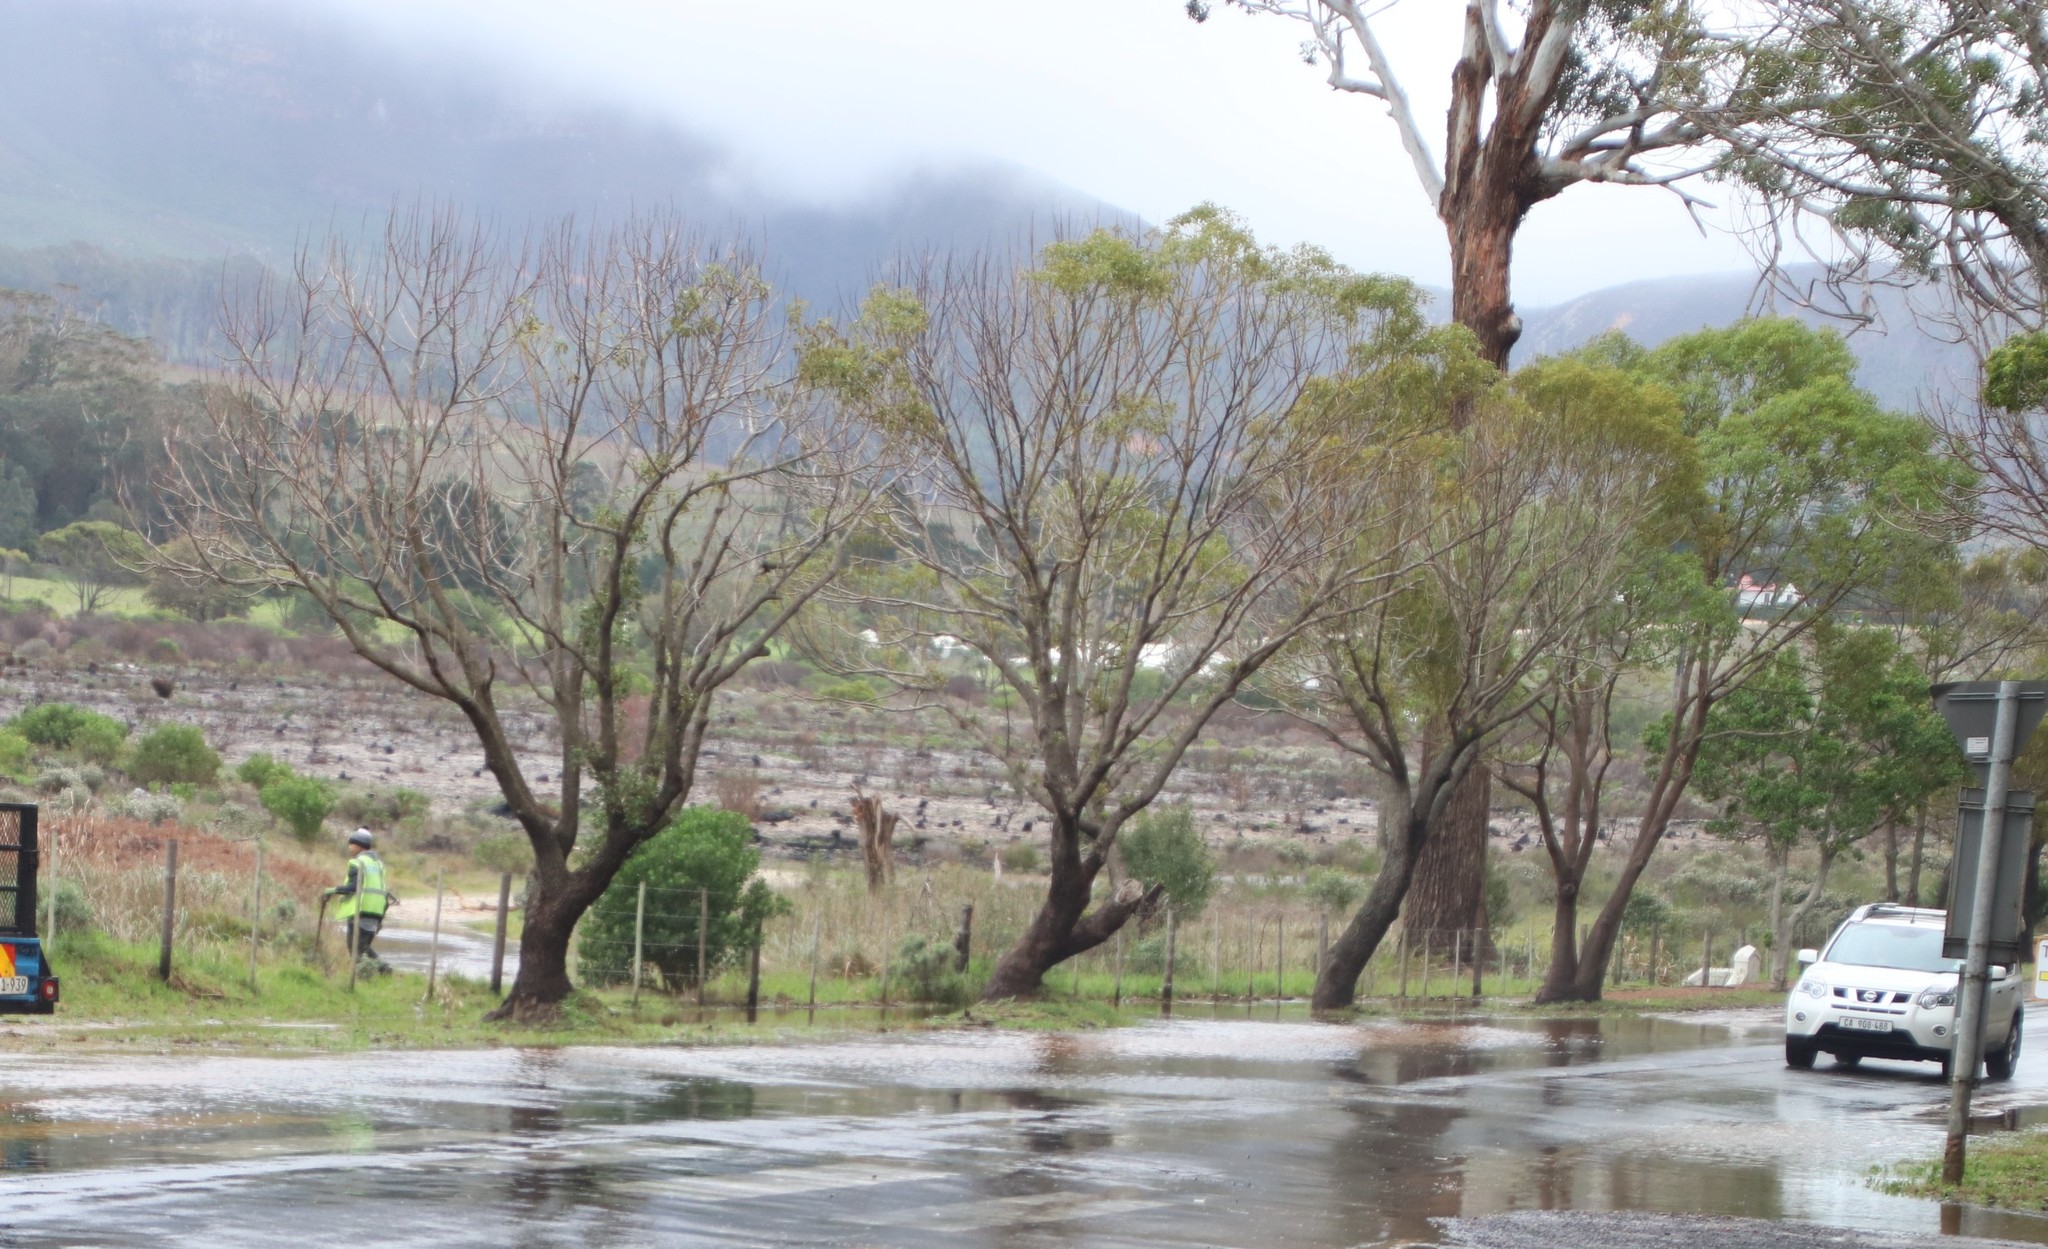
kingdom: Plantae
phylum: Tracheophyta
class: Magnoliopsida
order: Laurales
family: Lauraceae
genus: Cinnamomum
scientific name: Cinnamomum camphora
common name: Camphortree
